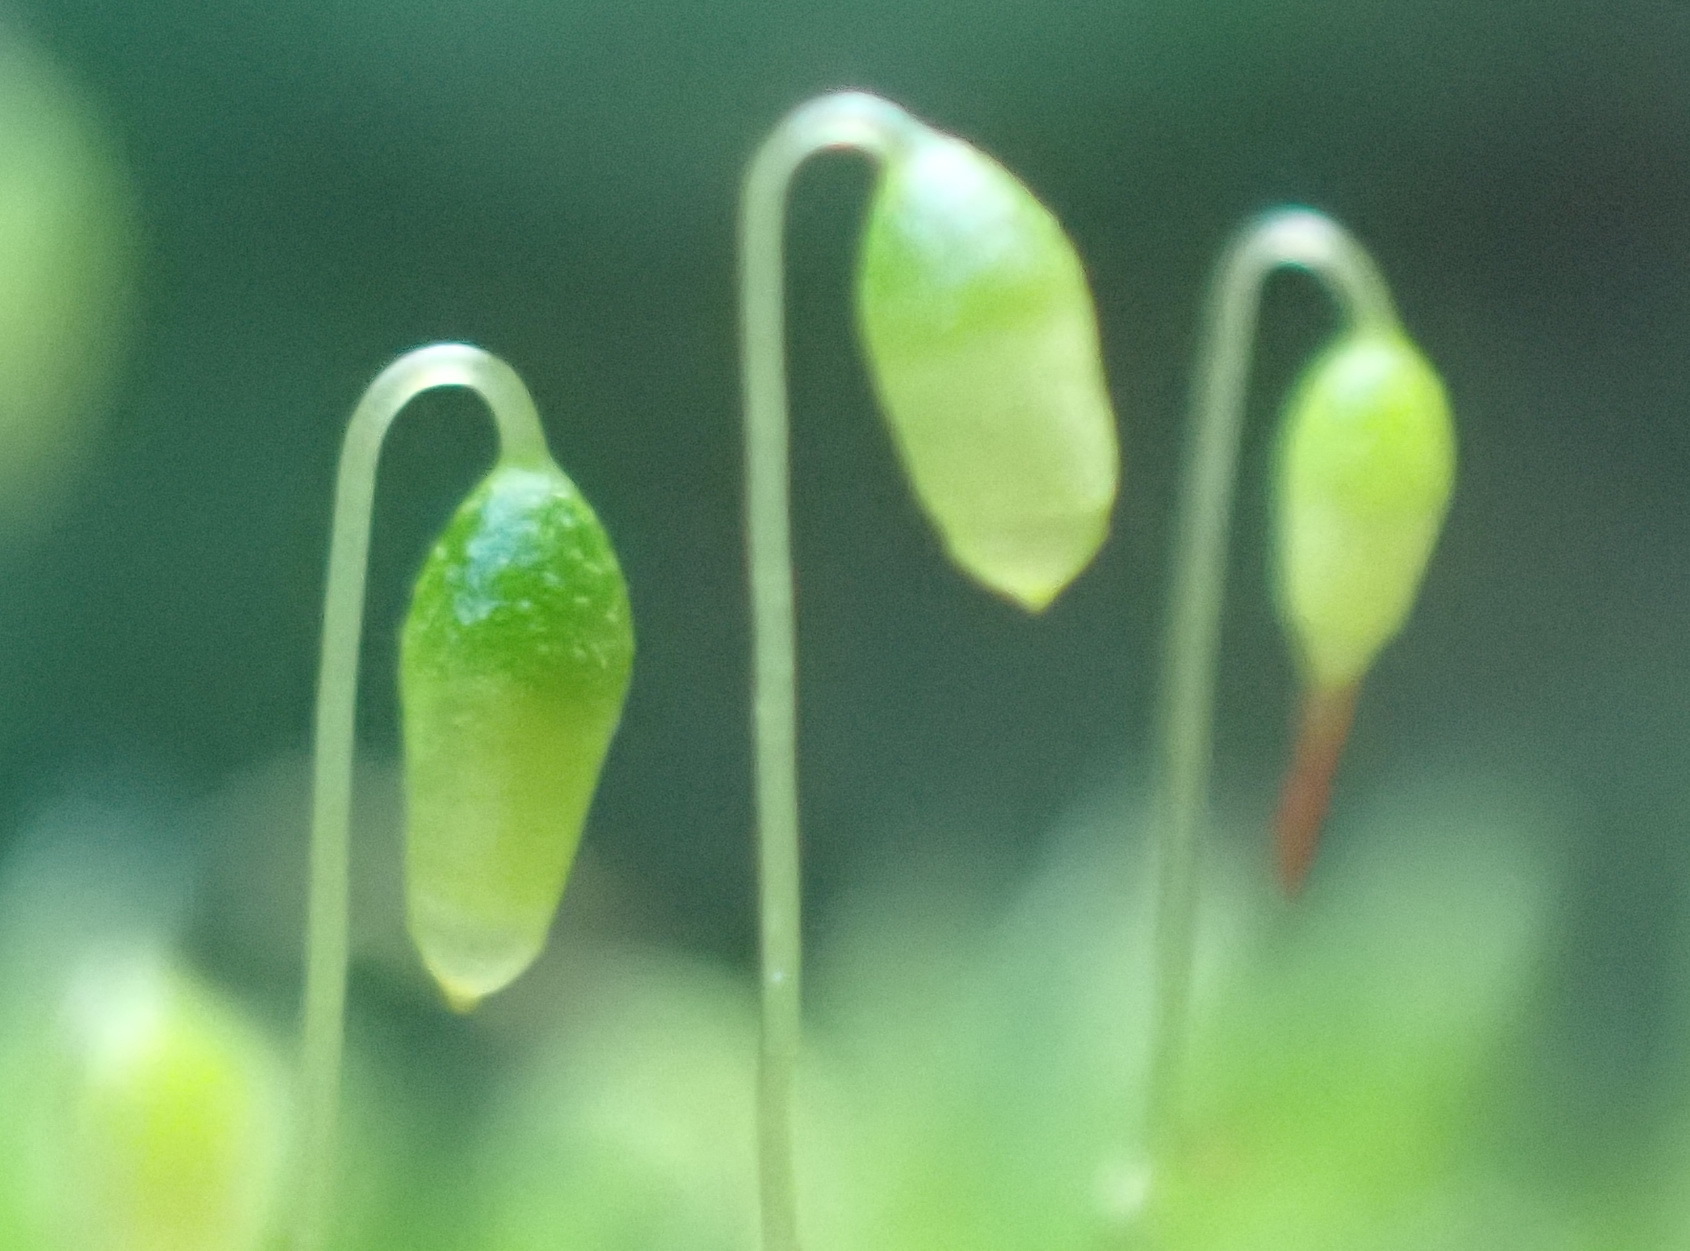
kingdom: Plantae
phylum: Bryophyta
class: Bryopsida
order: Bryales
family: Bryaceae
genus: Bryum
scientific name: Bryum argenteum
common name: Silver-moss
